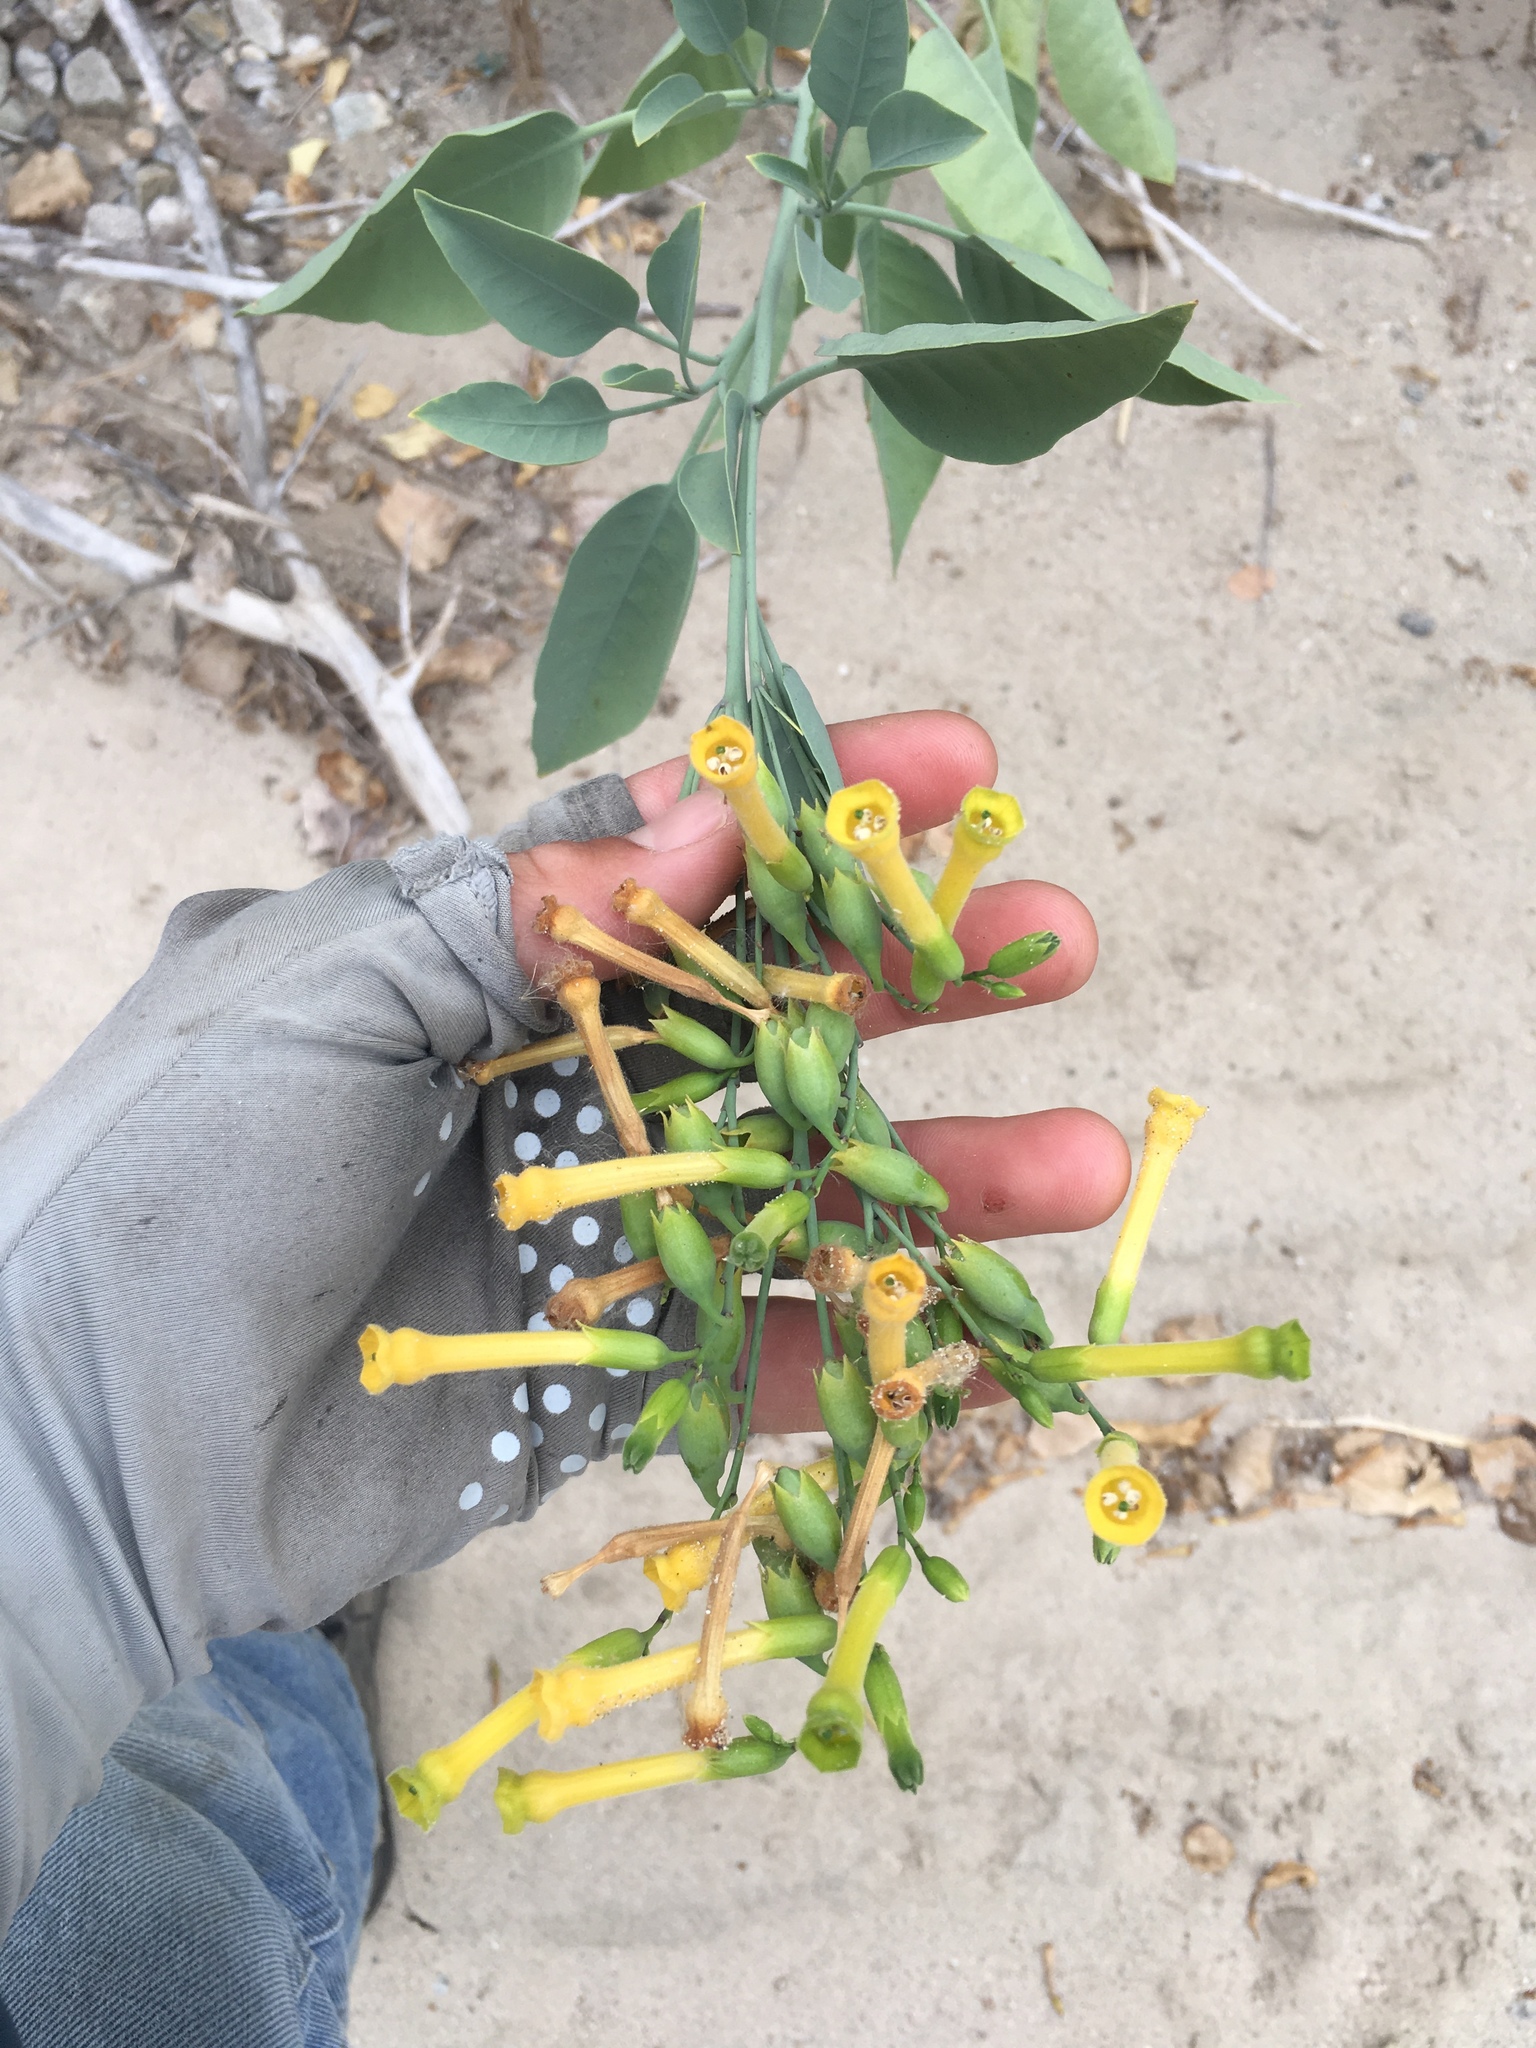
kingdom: Plantae
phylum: Tracheophyta
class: Magnoliopsida
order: Solanales
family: Solanaceae
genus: Nicotiana
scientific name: Nicotiana glauca
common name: Tree tobacco
